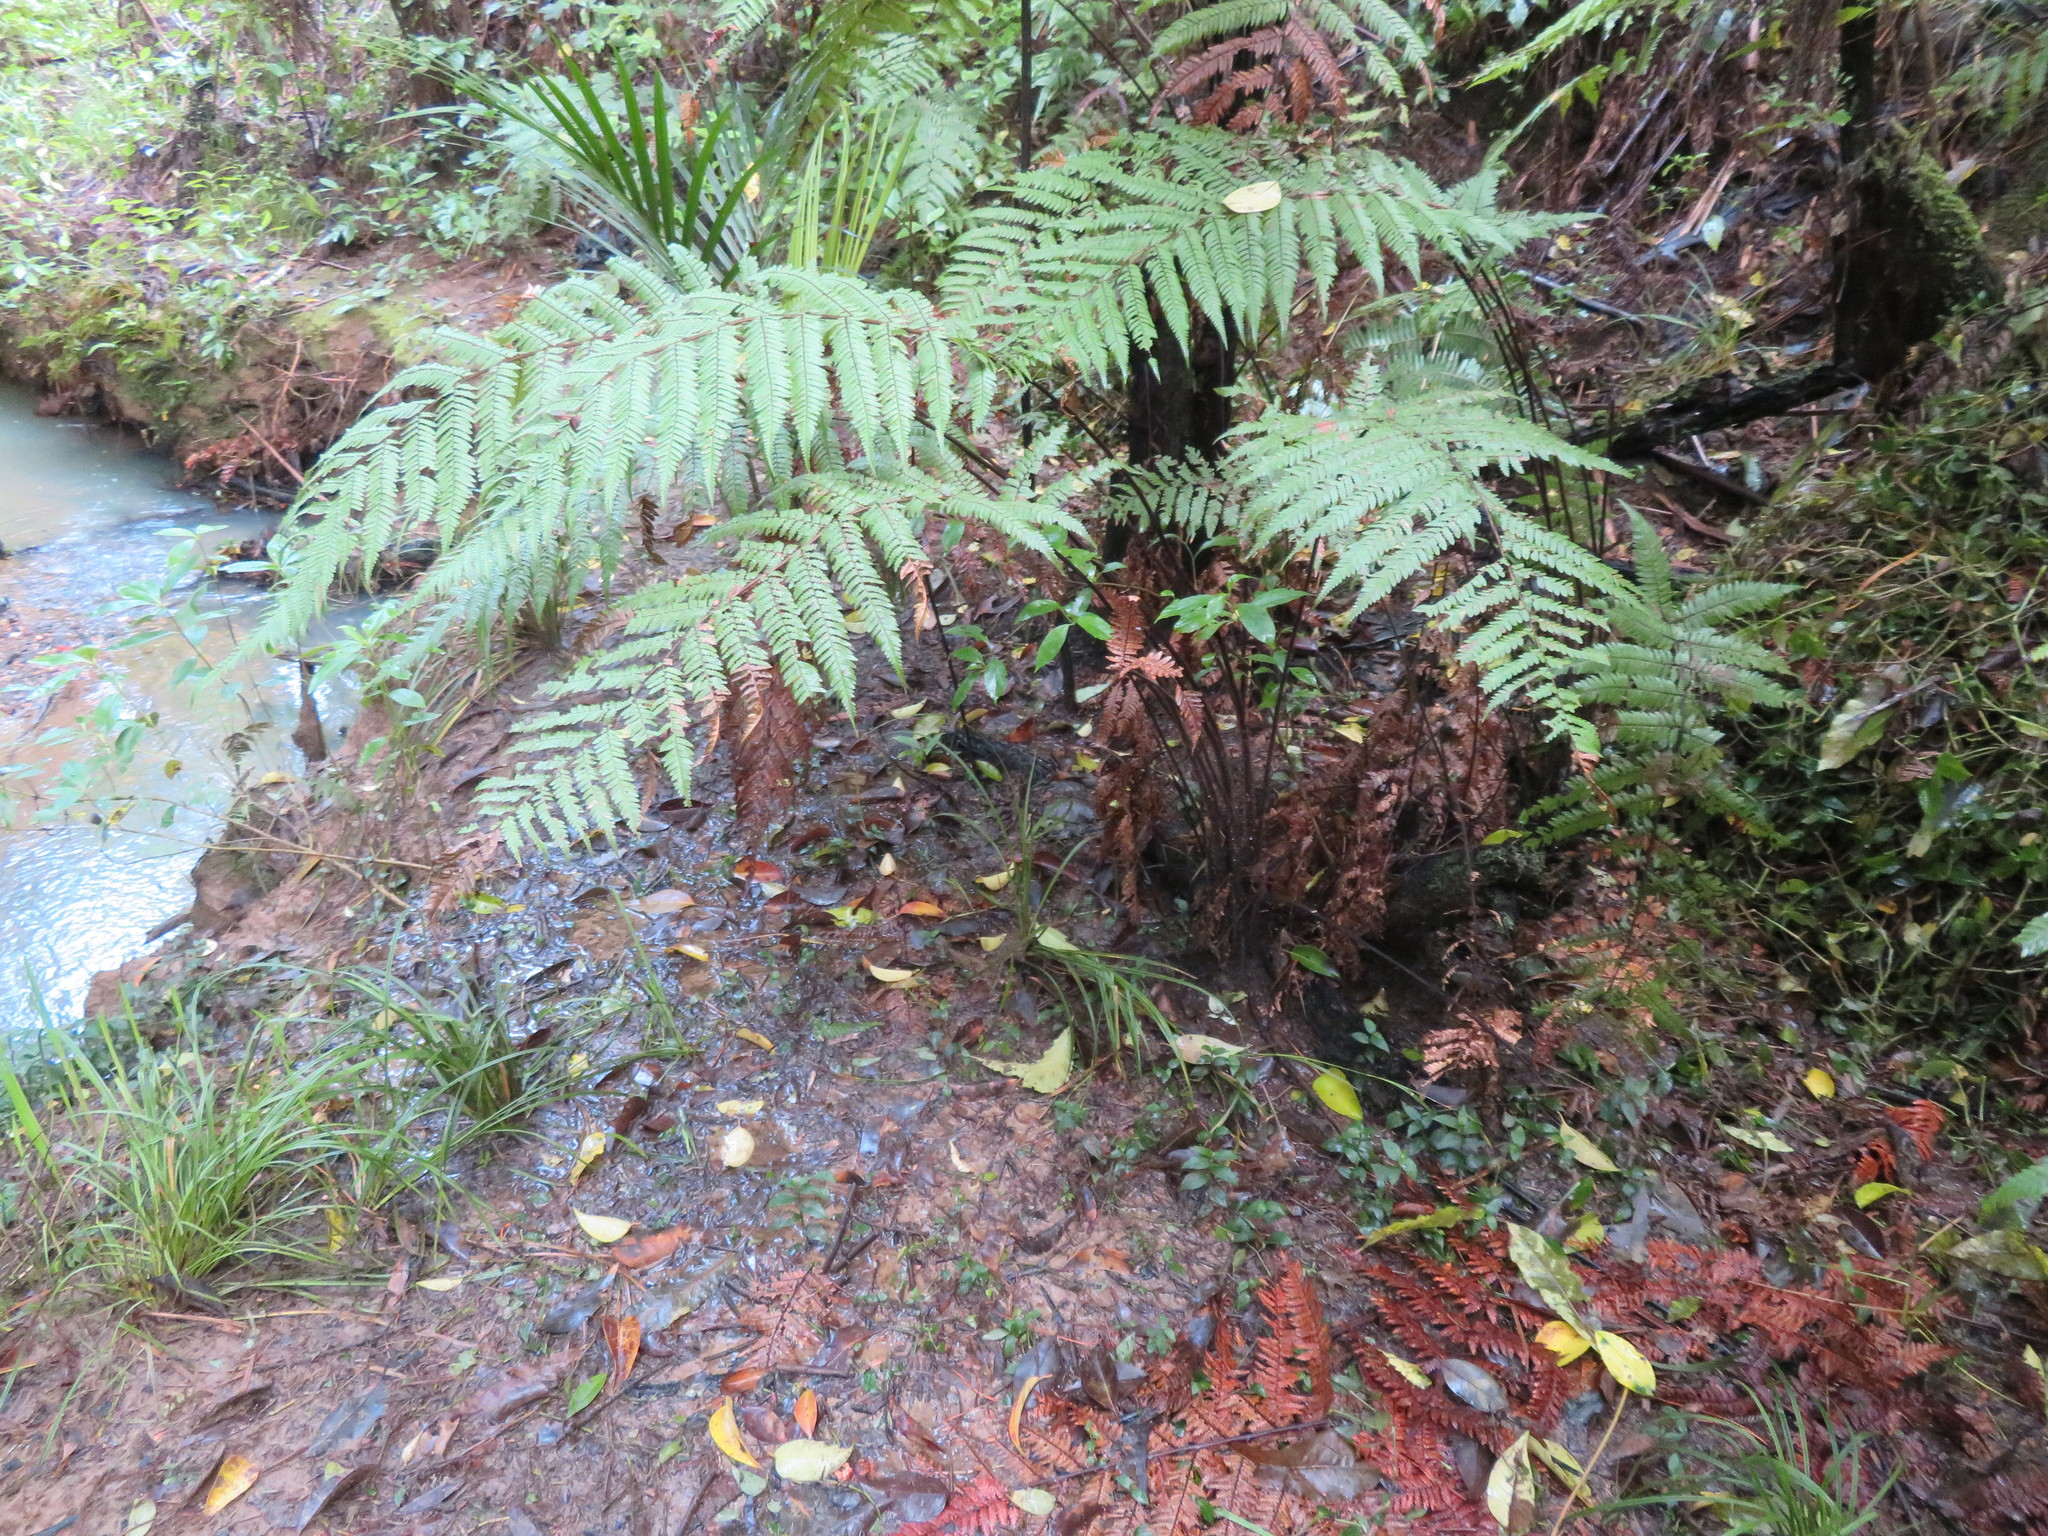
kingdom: Plantae
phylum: Tracheophyta
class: Polypodiopsida
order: Cyatheales
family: Dicksoniaceae
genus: Dicksonia
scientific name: Dicksonia squarrosa
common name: Hard treefern
